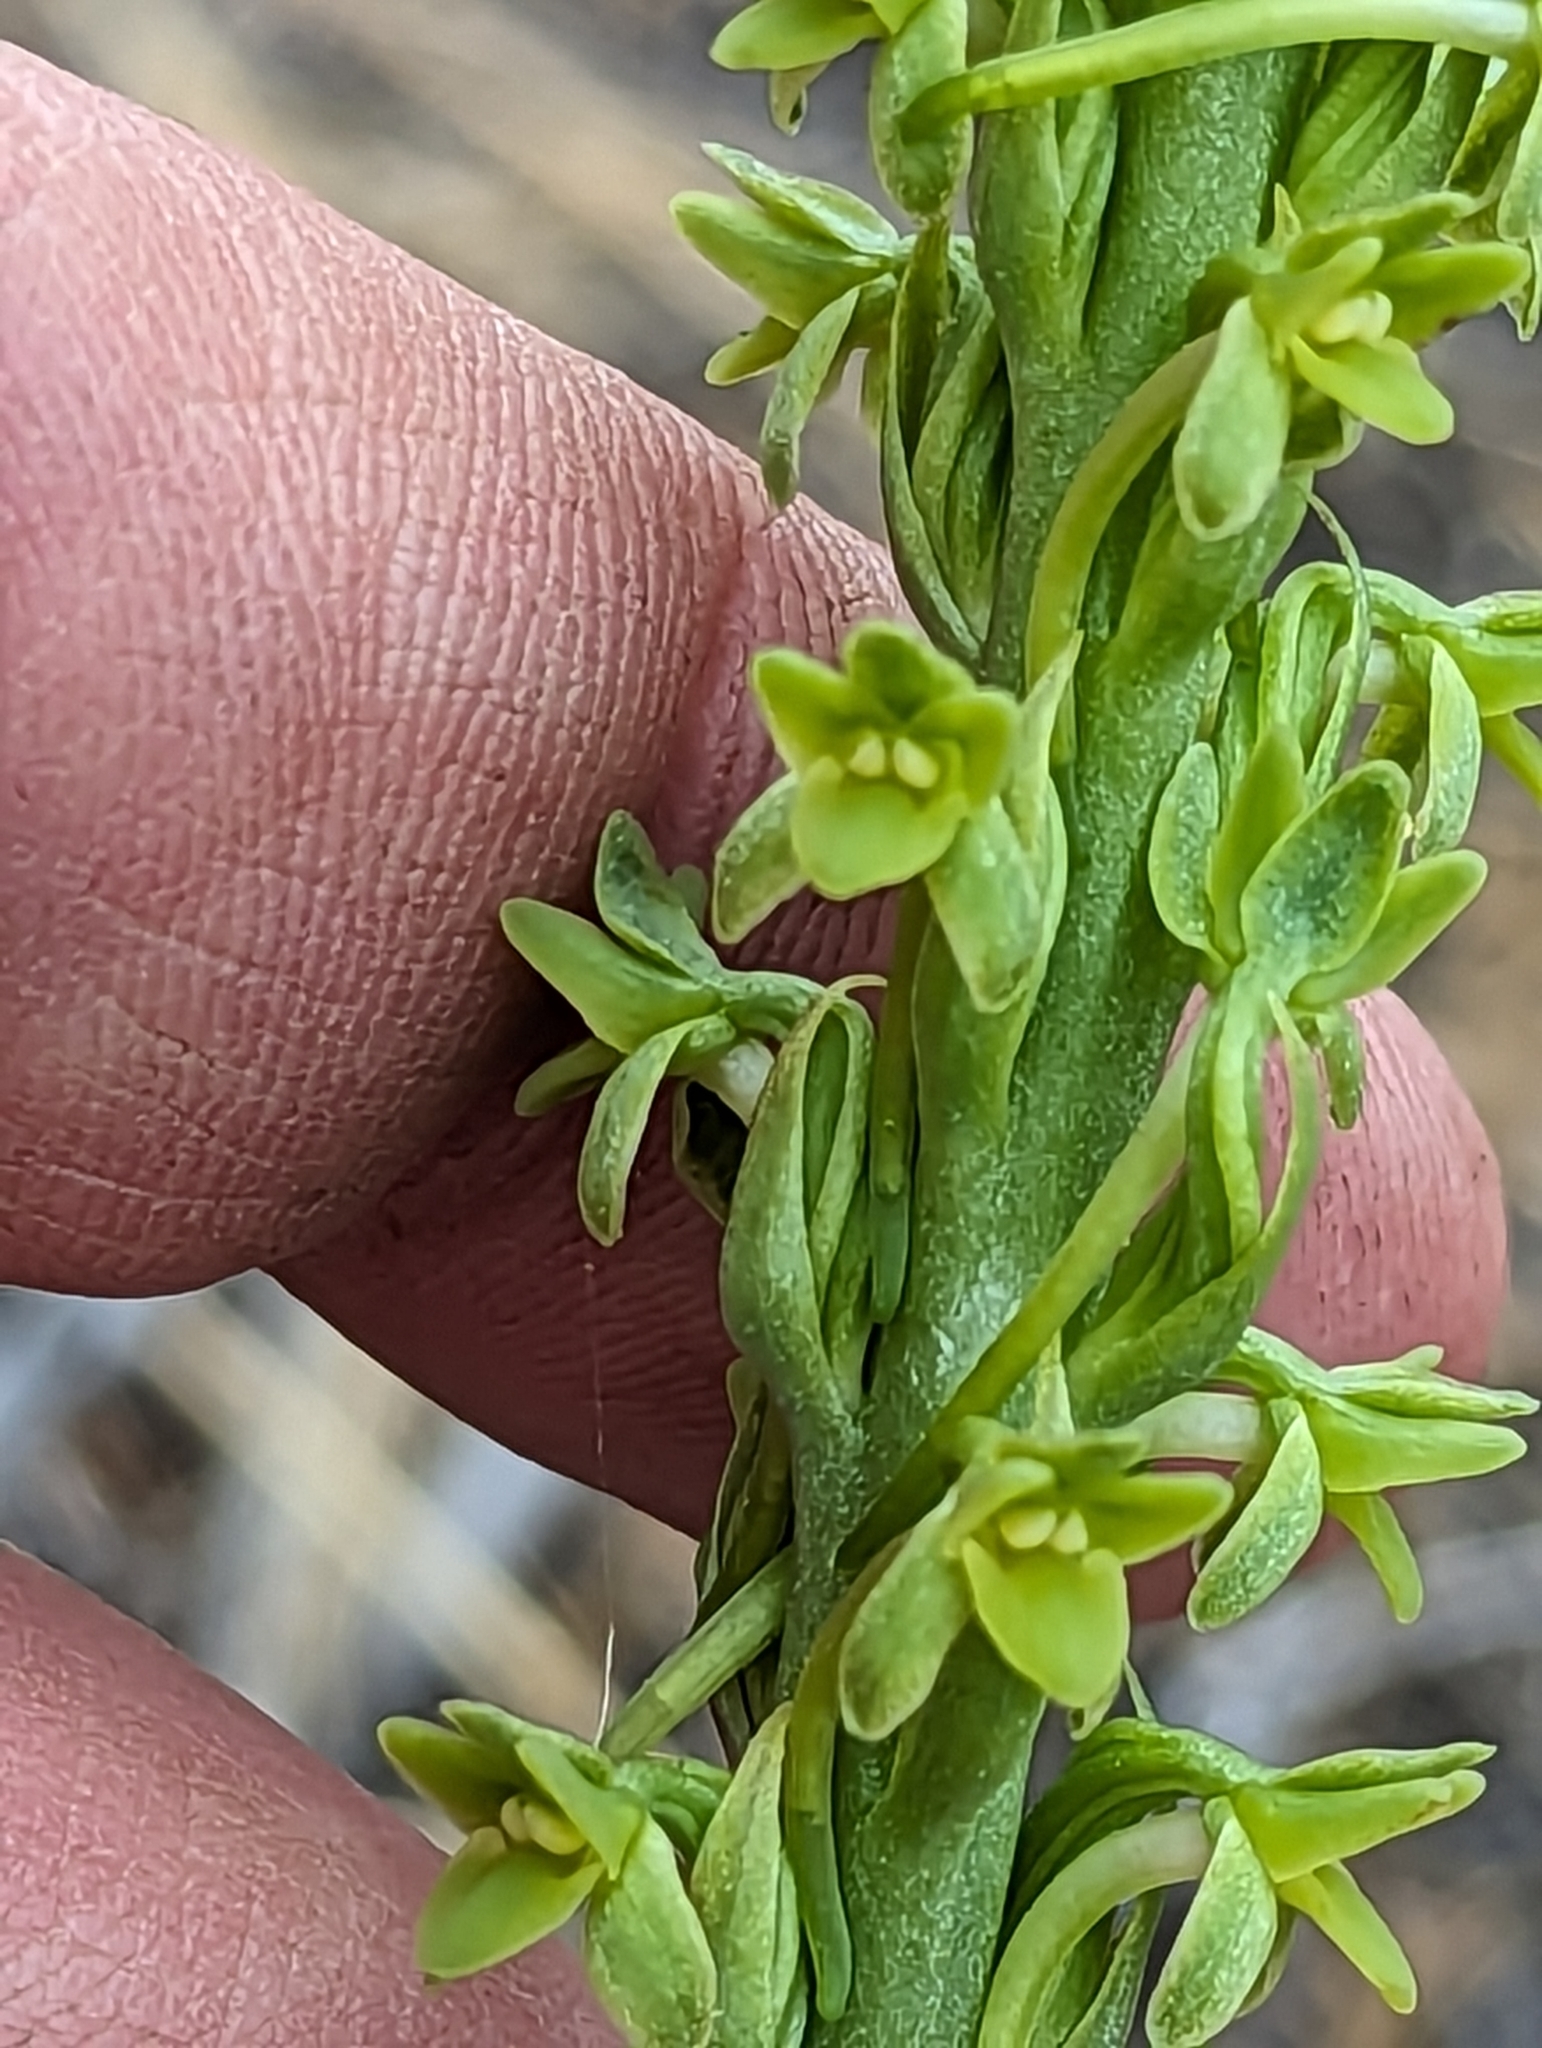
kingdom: Plantae
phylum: Tracheophyta
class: Liliopsida
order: Asparagales
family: Orchidaceae
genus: Platanthera
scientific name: Platanthera michaelii
